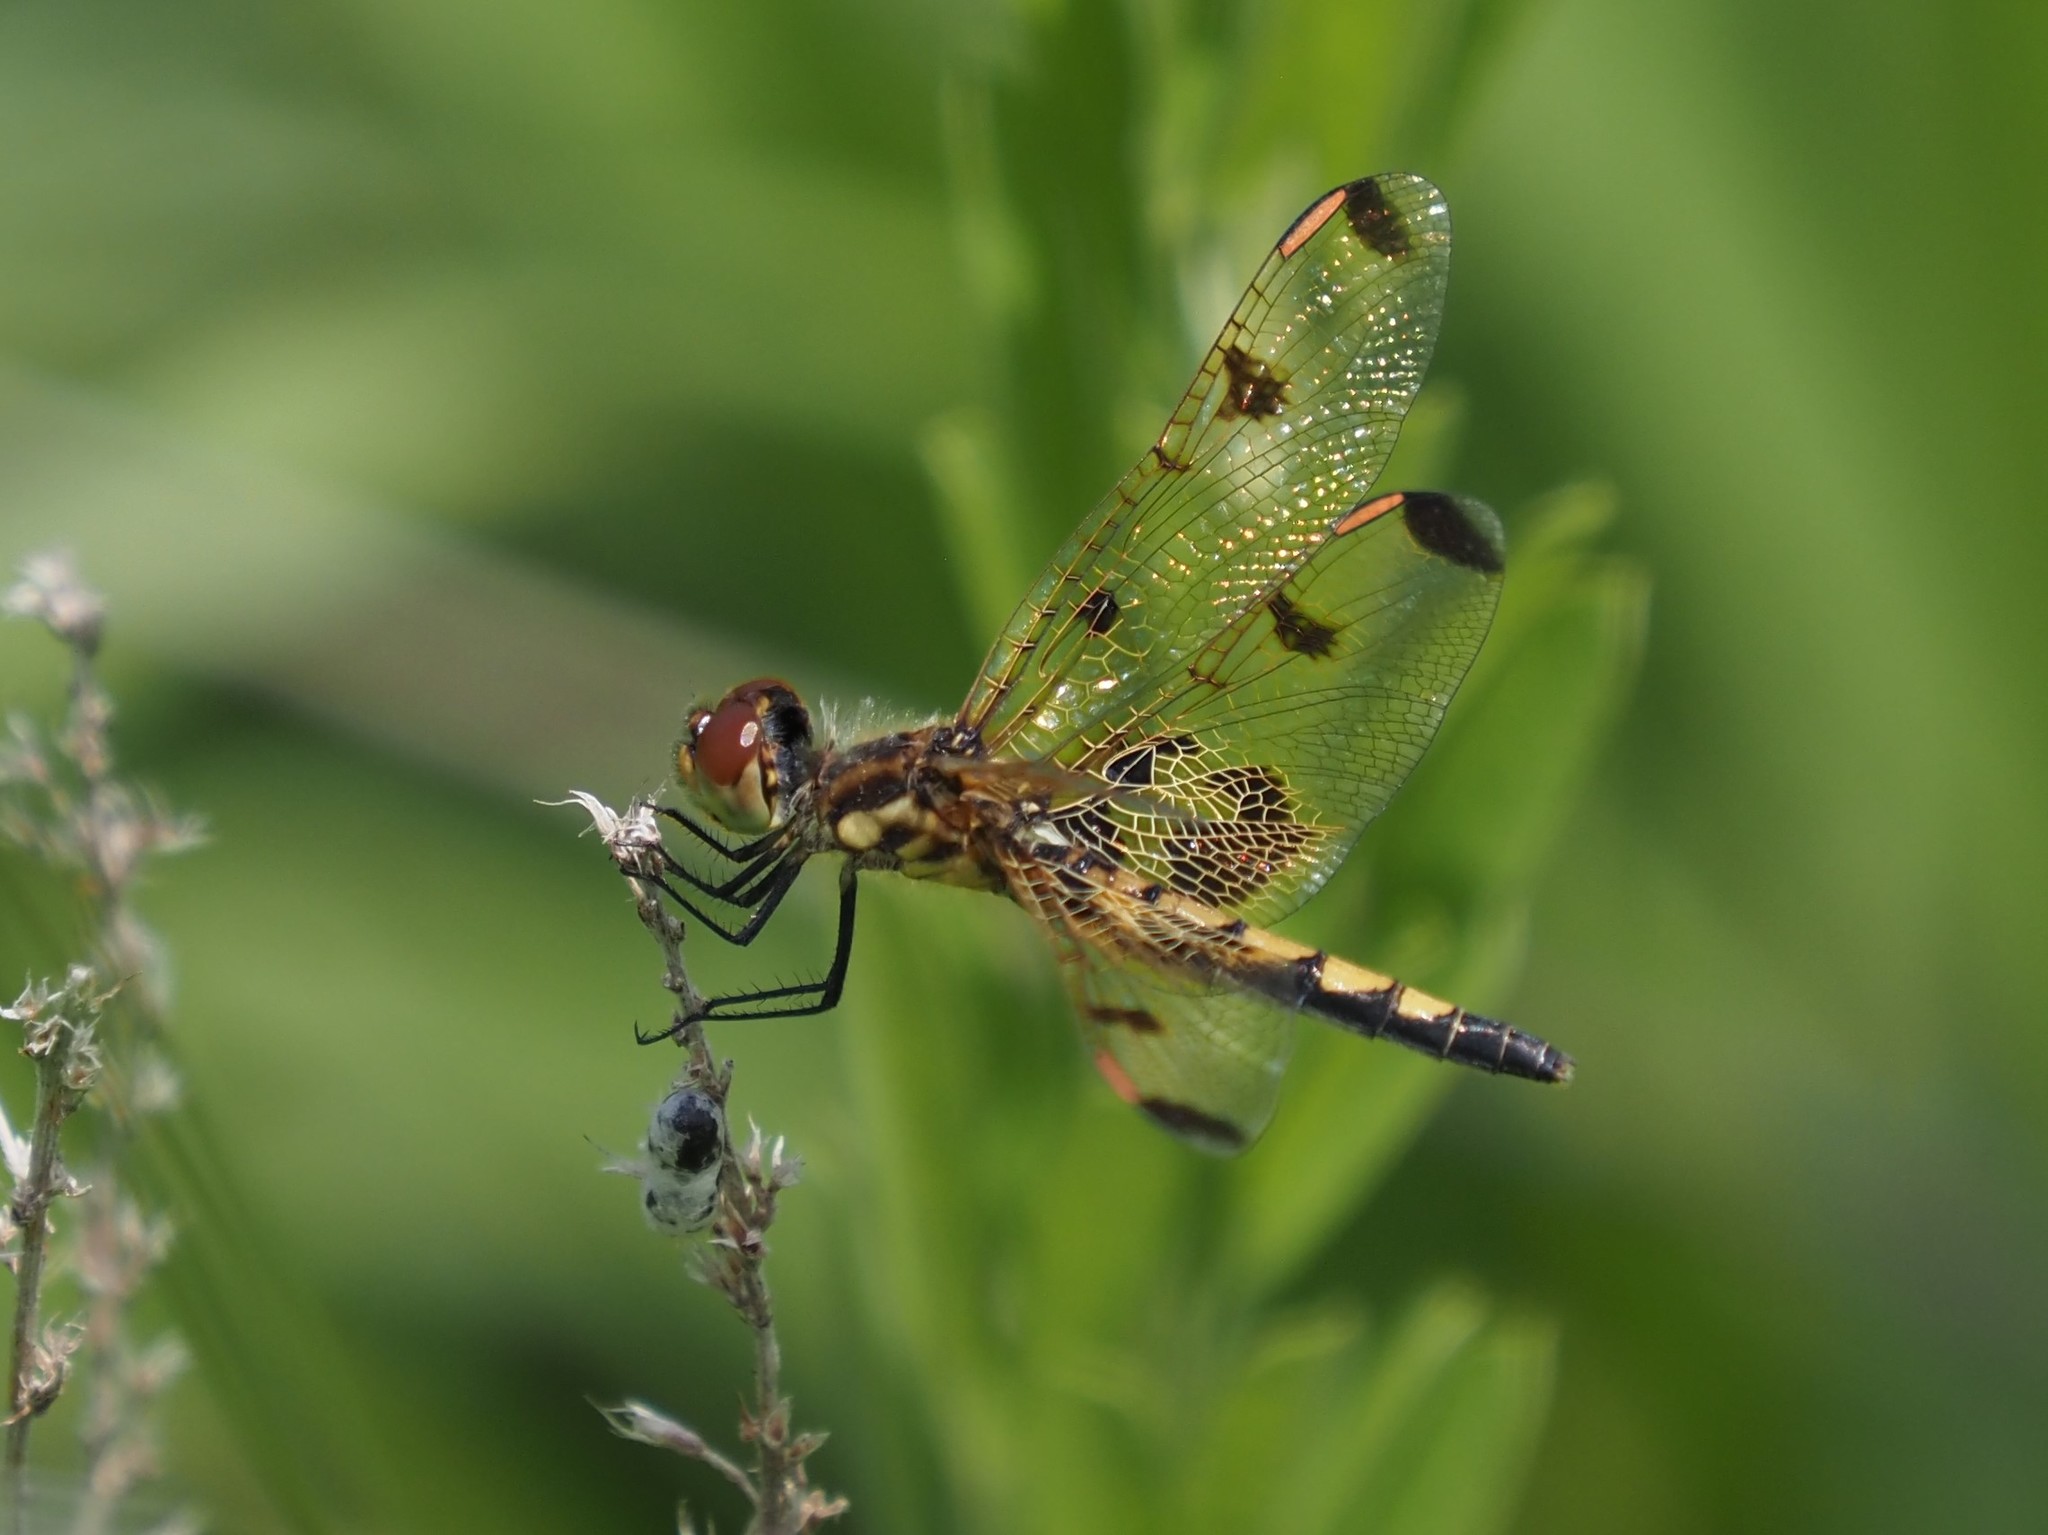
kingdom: Animalia
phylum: Arthropoda
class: Insecta
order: Odonata
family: Libellulidae
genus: Celithemis
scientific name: Celithemis elisa
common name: Calico pennant
